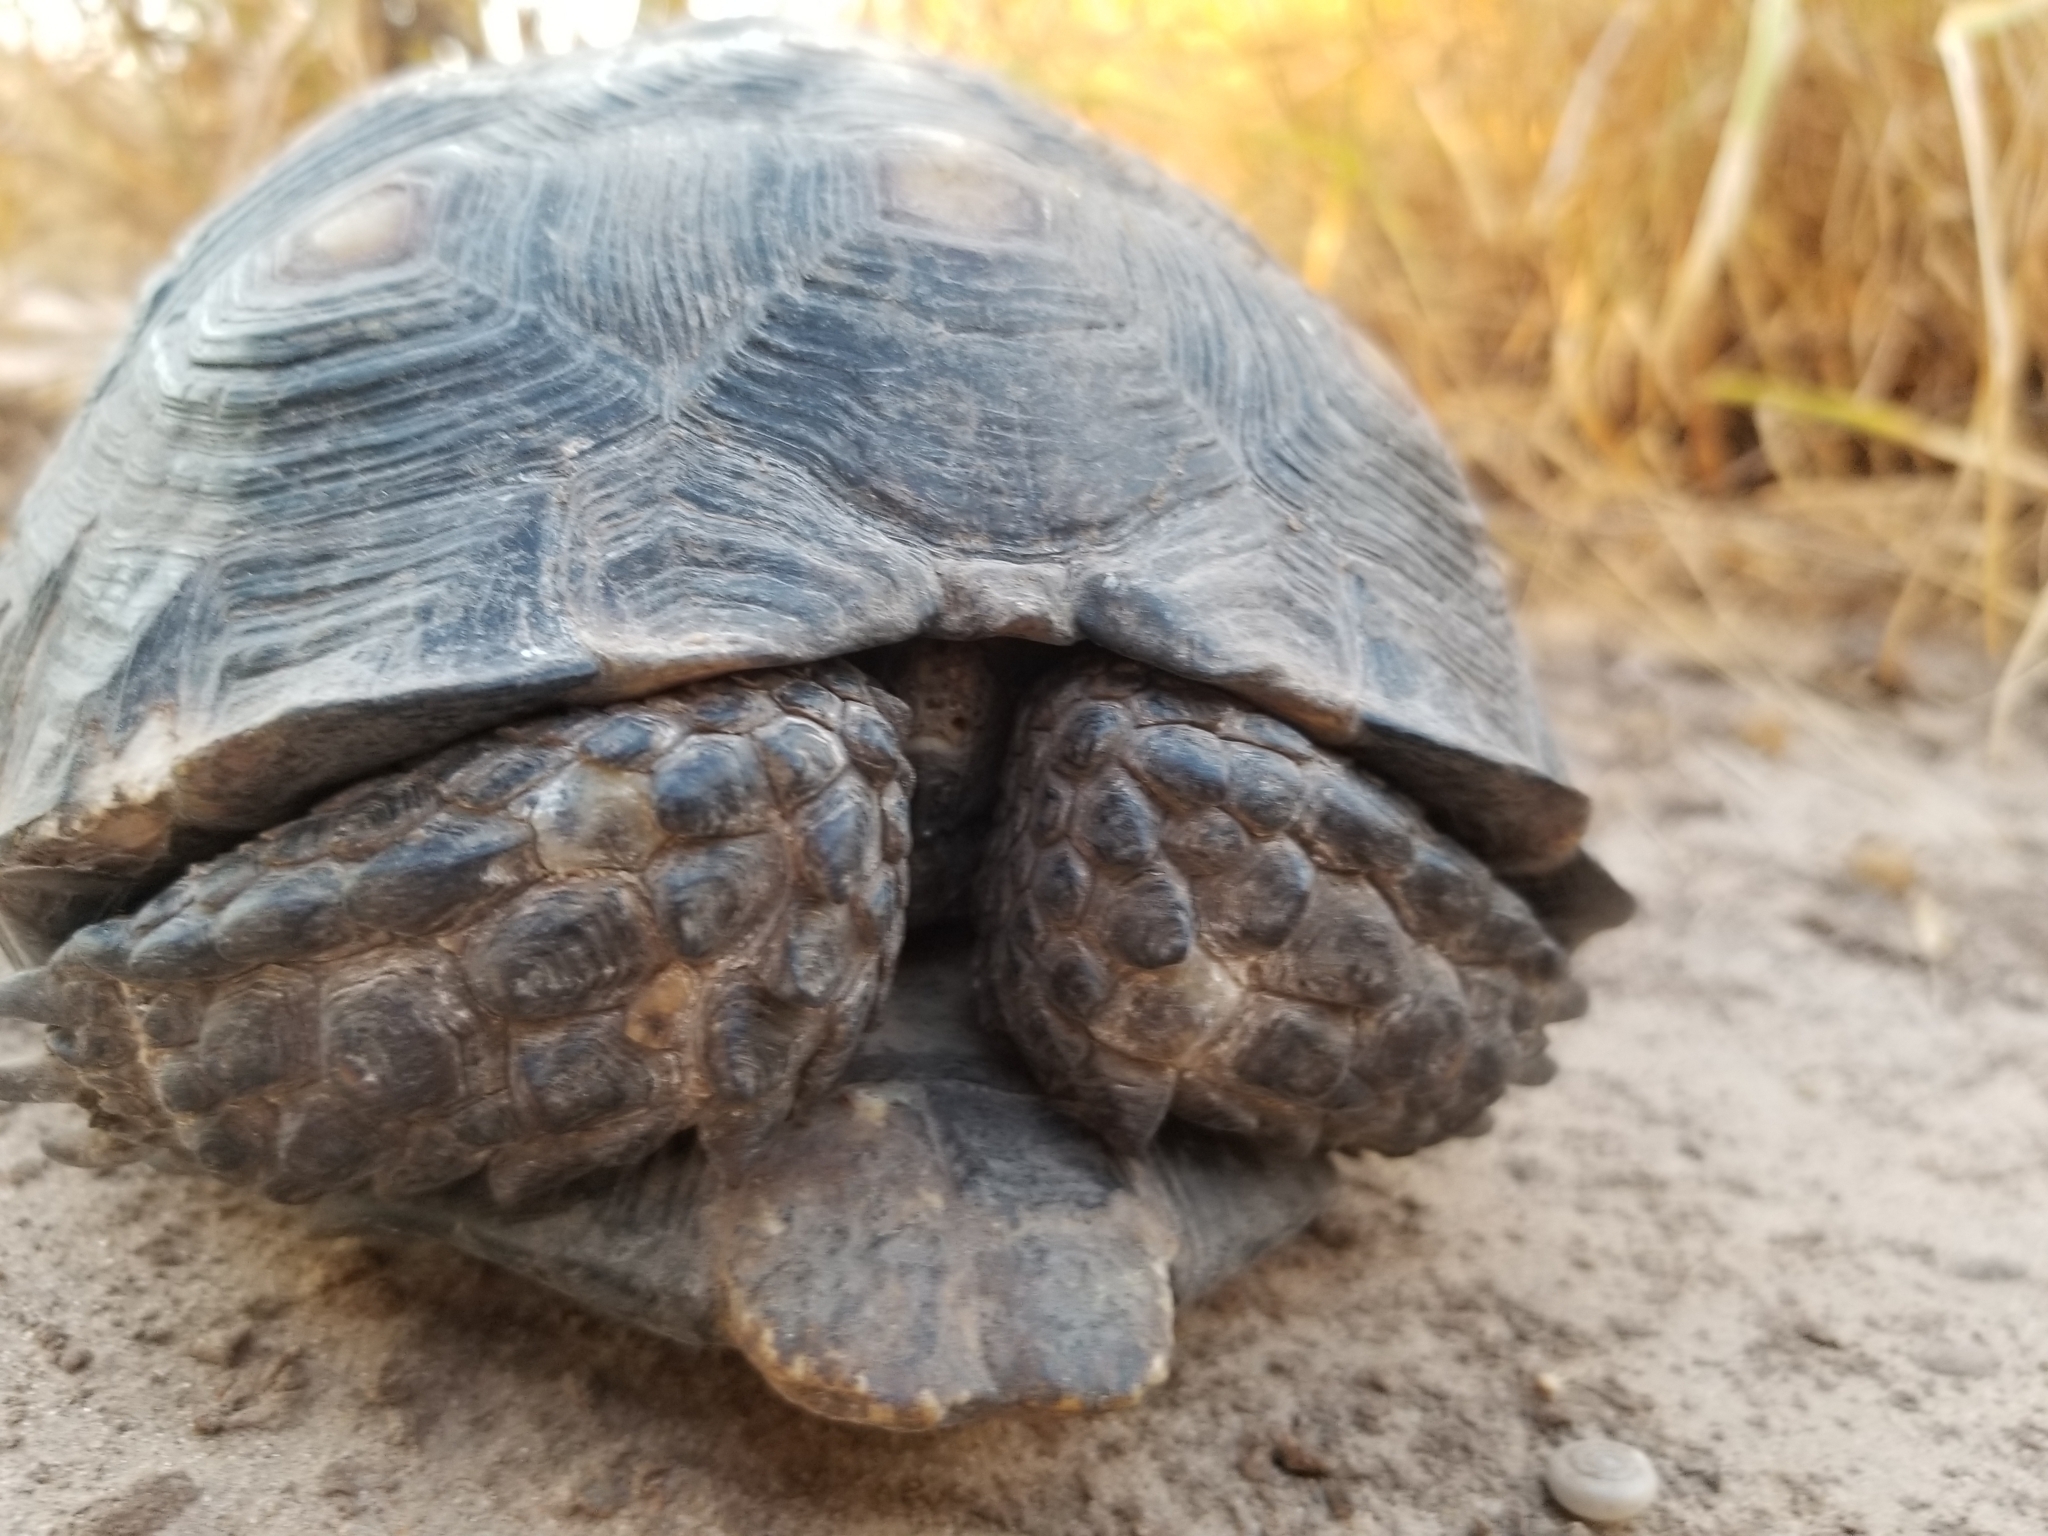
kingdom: Animalia
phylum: Chordata
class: Testudines
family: Testudinidae
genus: Gopherus
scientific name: Gopherus berlandieri
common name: Texas (gopher )tortoise
